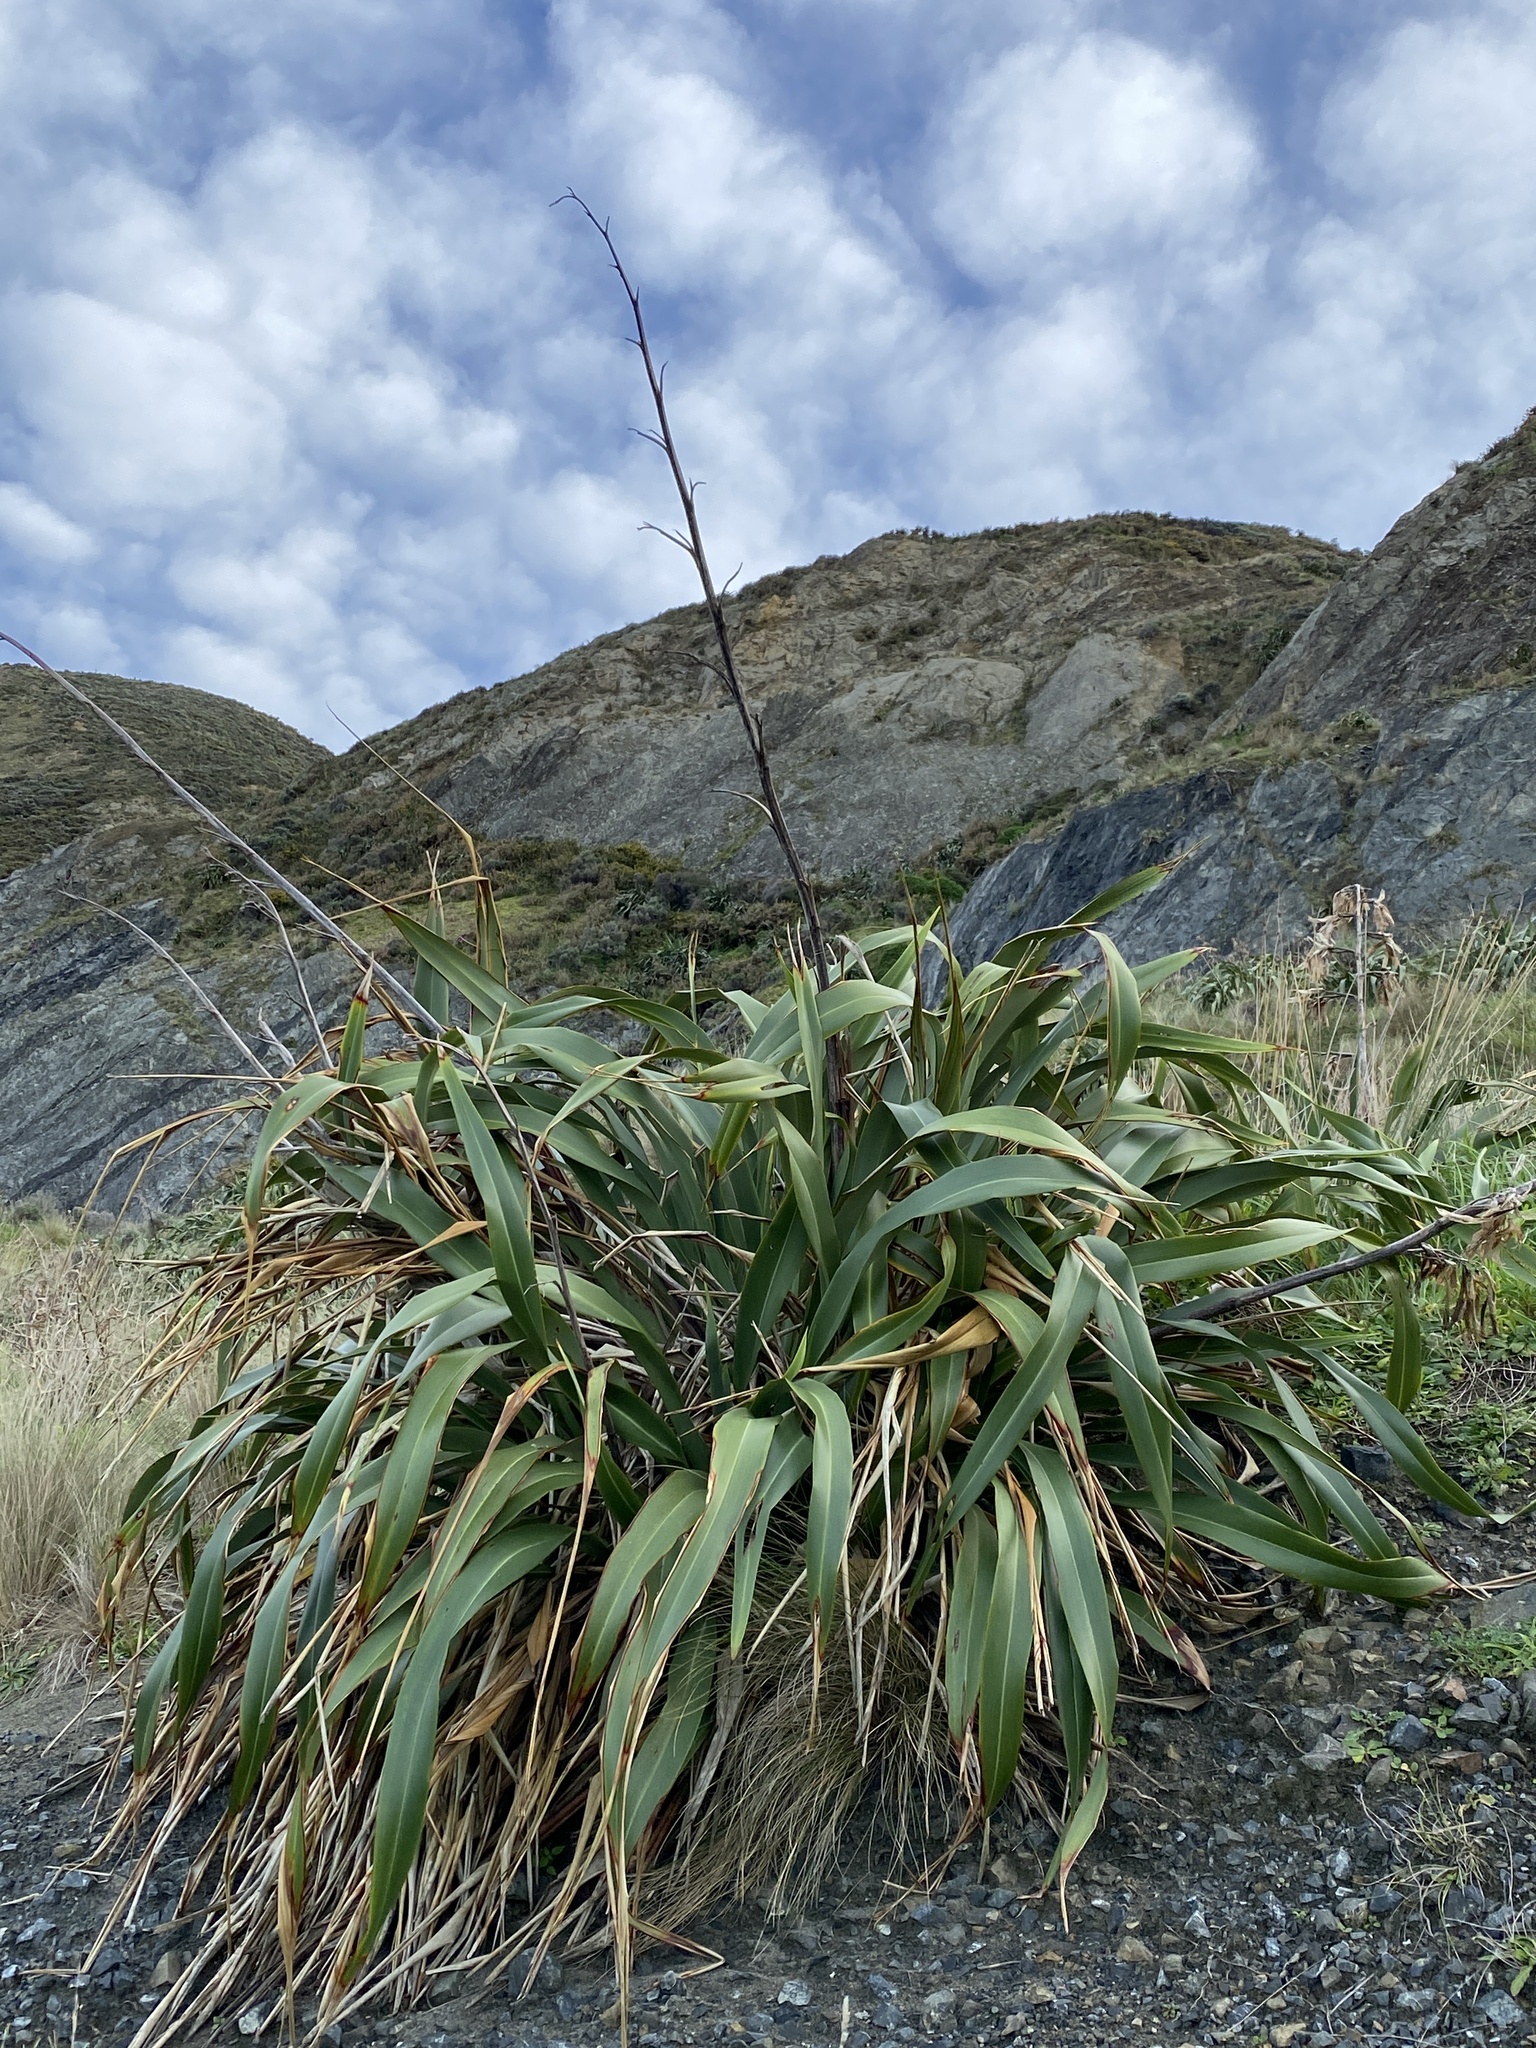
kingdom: Plantae
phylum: Tracheophyta
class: Liliopsida
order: Asparagales
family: Asphodelaceae
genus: Phormium
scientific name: Phormium colensoi
